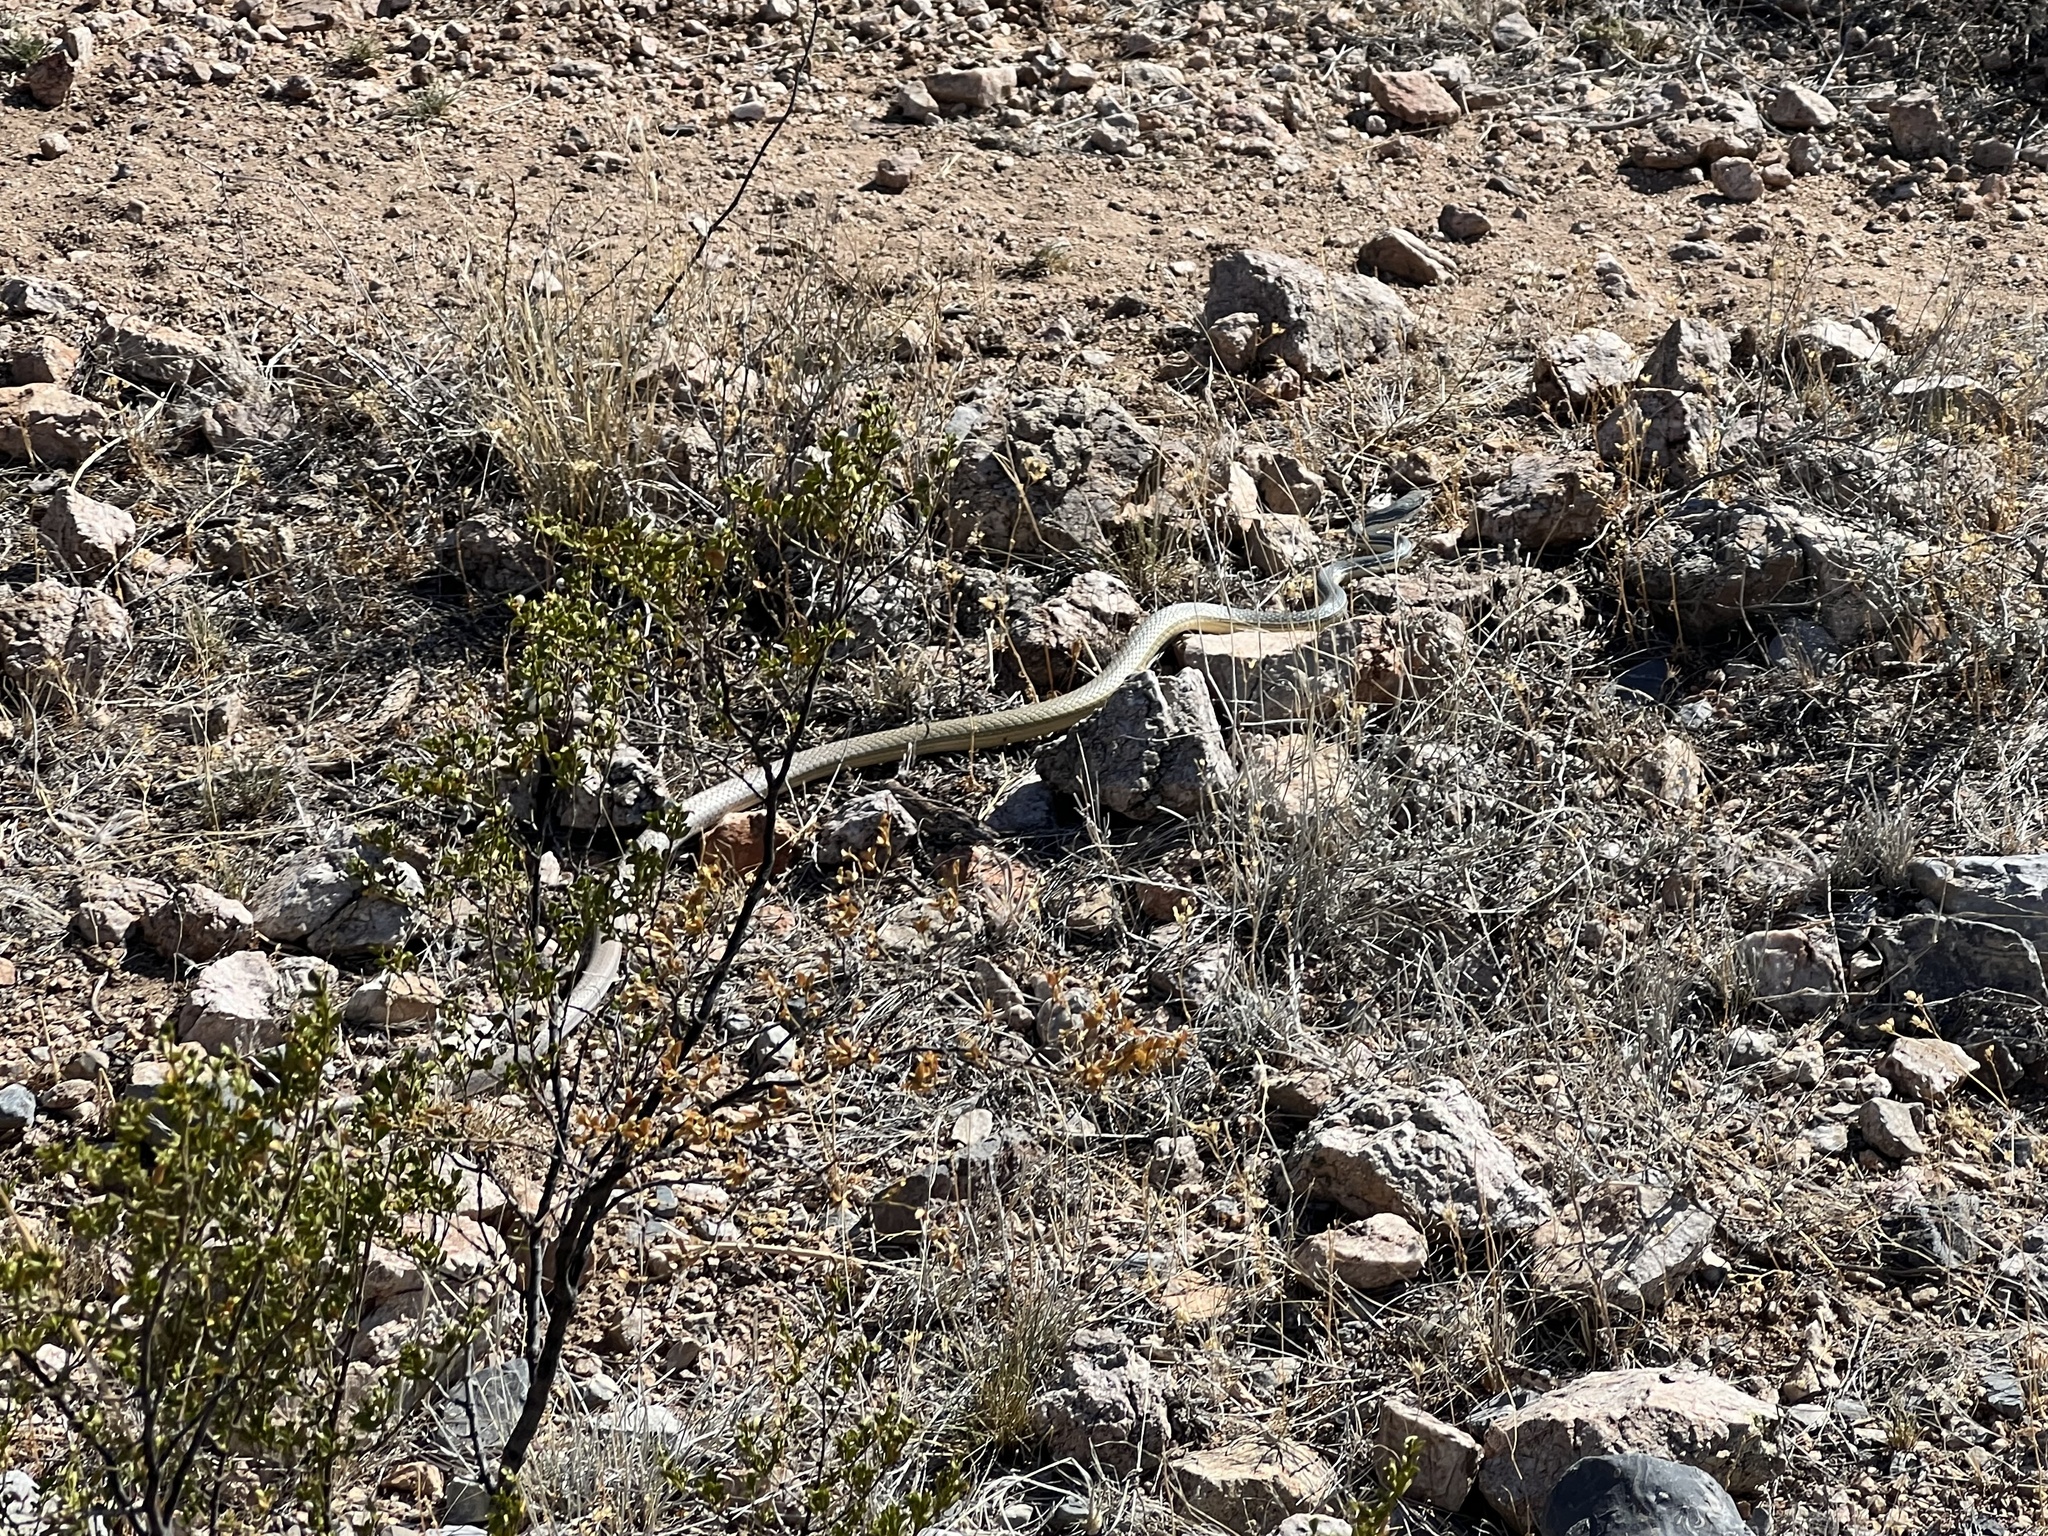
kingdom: Animalia
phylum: Chordata
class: Squamata
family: Colubridae
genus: Masticophis
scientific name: Masticophis bilineatus
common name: Sonoran whipsnake
